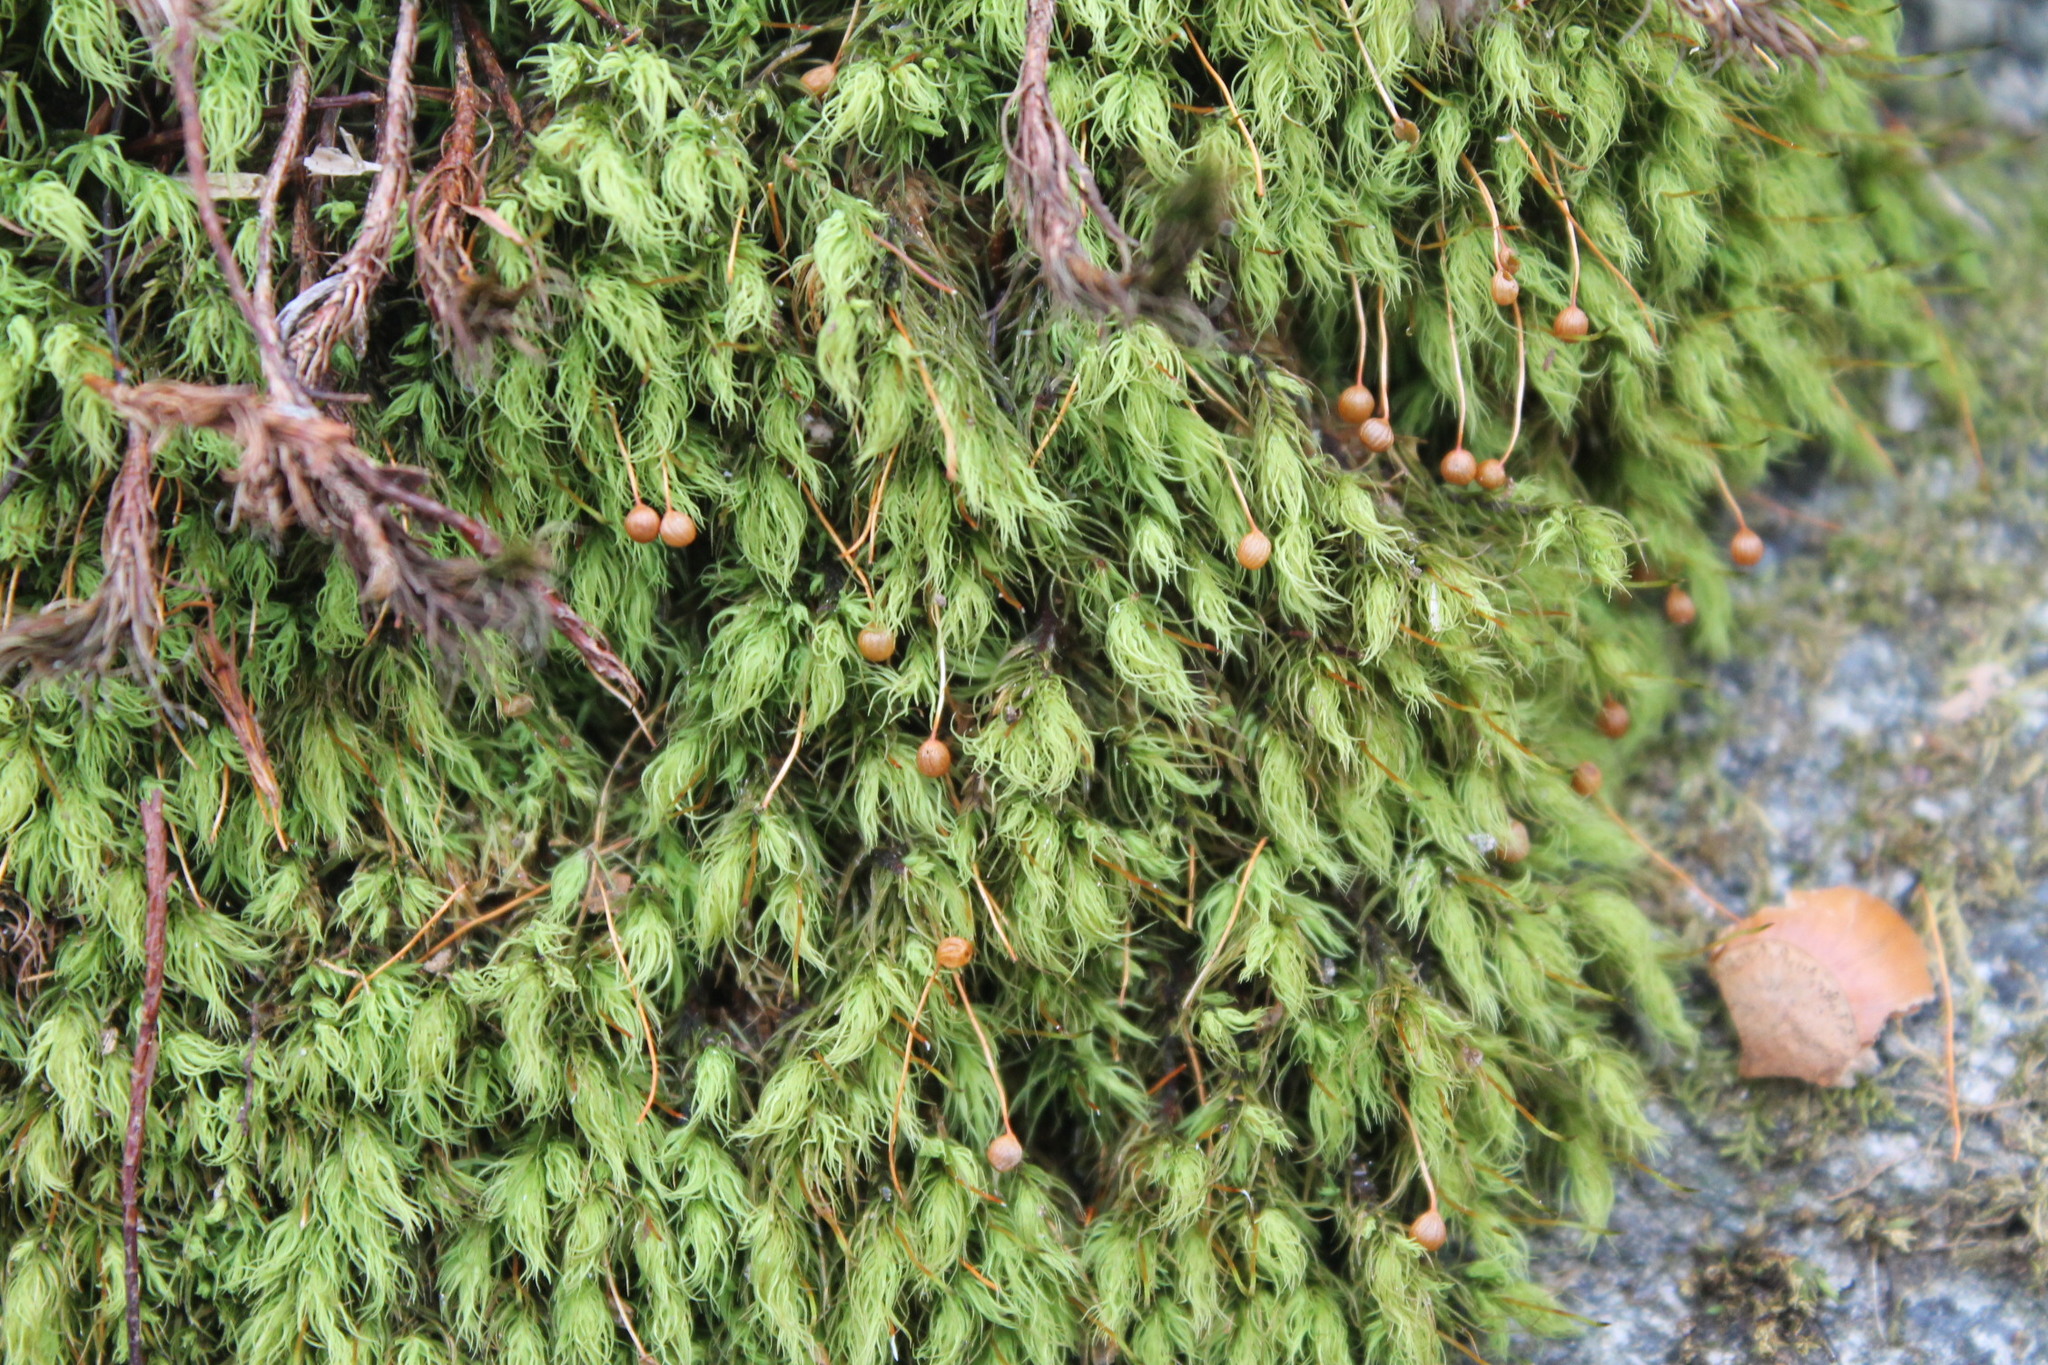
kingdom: Plantae
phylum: Bryophyta
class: Bryopsida
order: Bartramiales
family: Bartramiaceae
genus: Bartramia
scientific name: Bartramia ithyphylla
